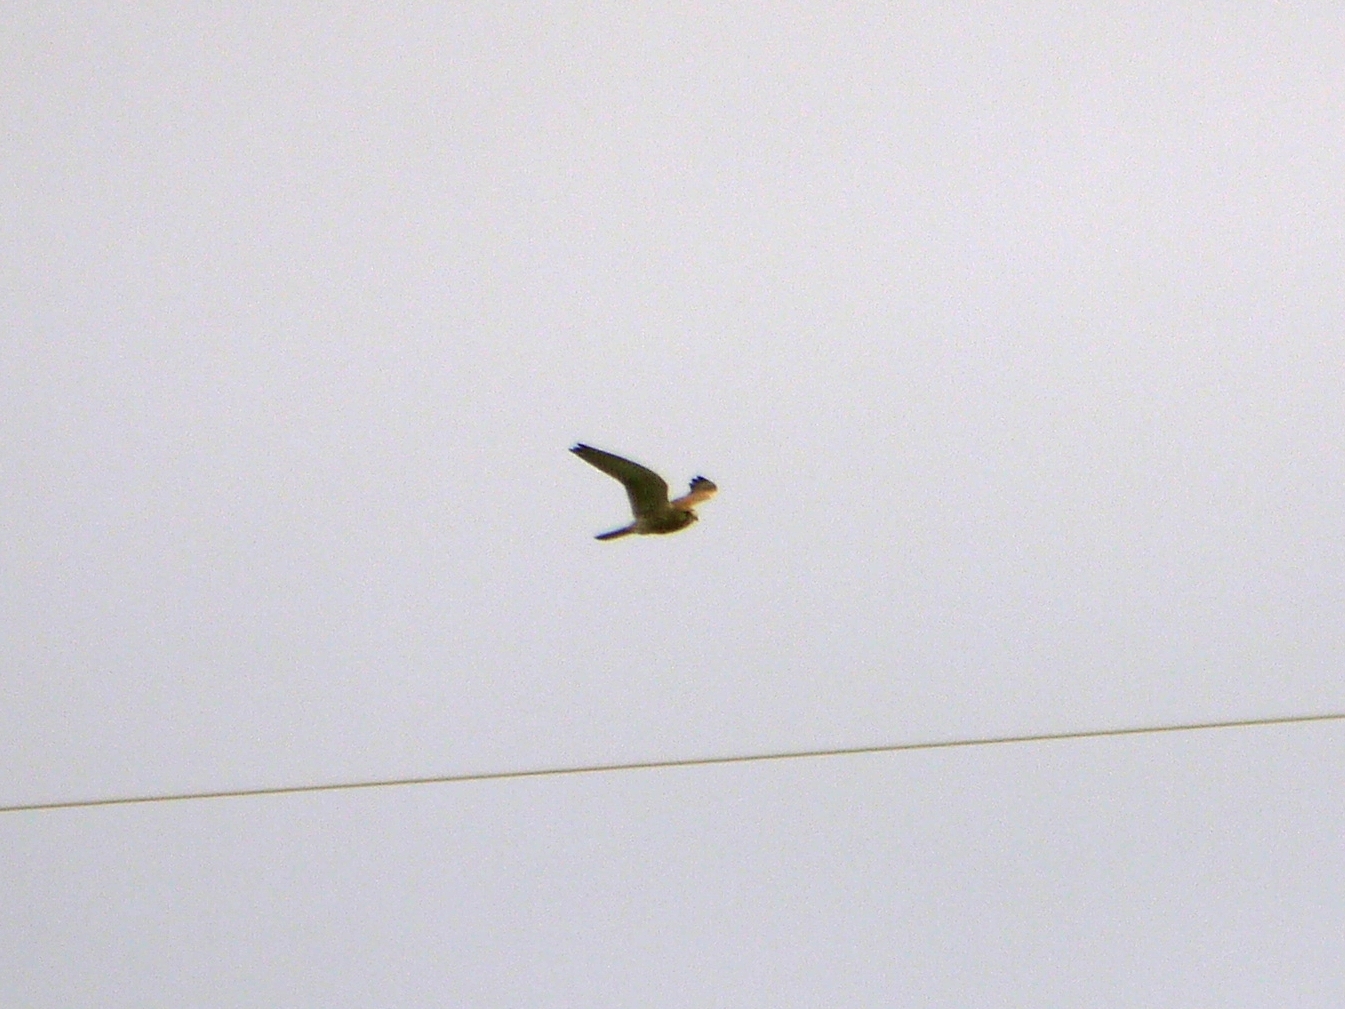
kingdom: Animalia
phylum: Chordata
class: Aves
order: Falconiformes
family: Falconidae
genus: Falco
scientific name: Falco tinnunculus
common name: Common kestrel
